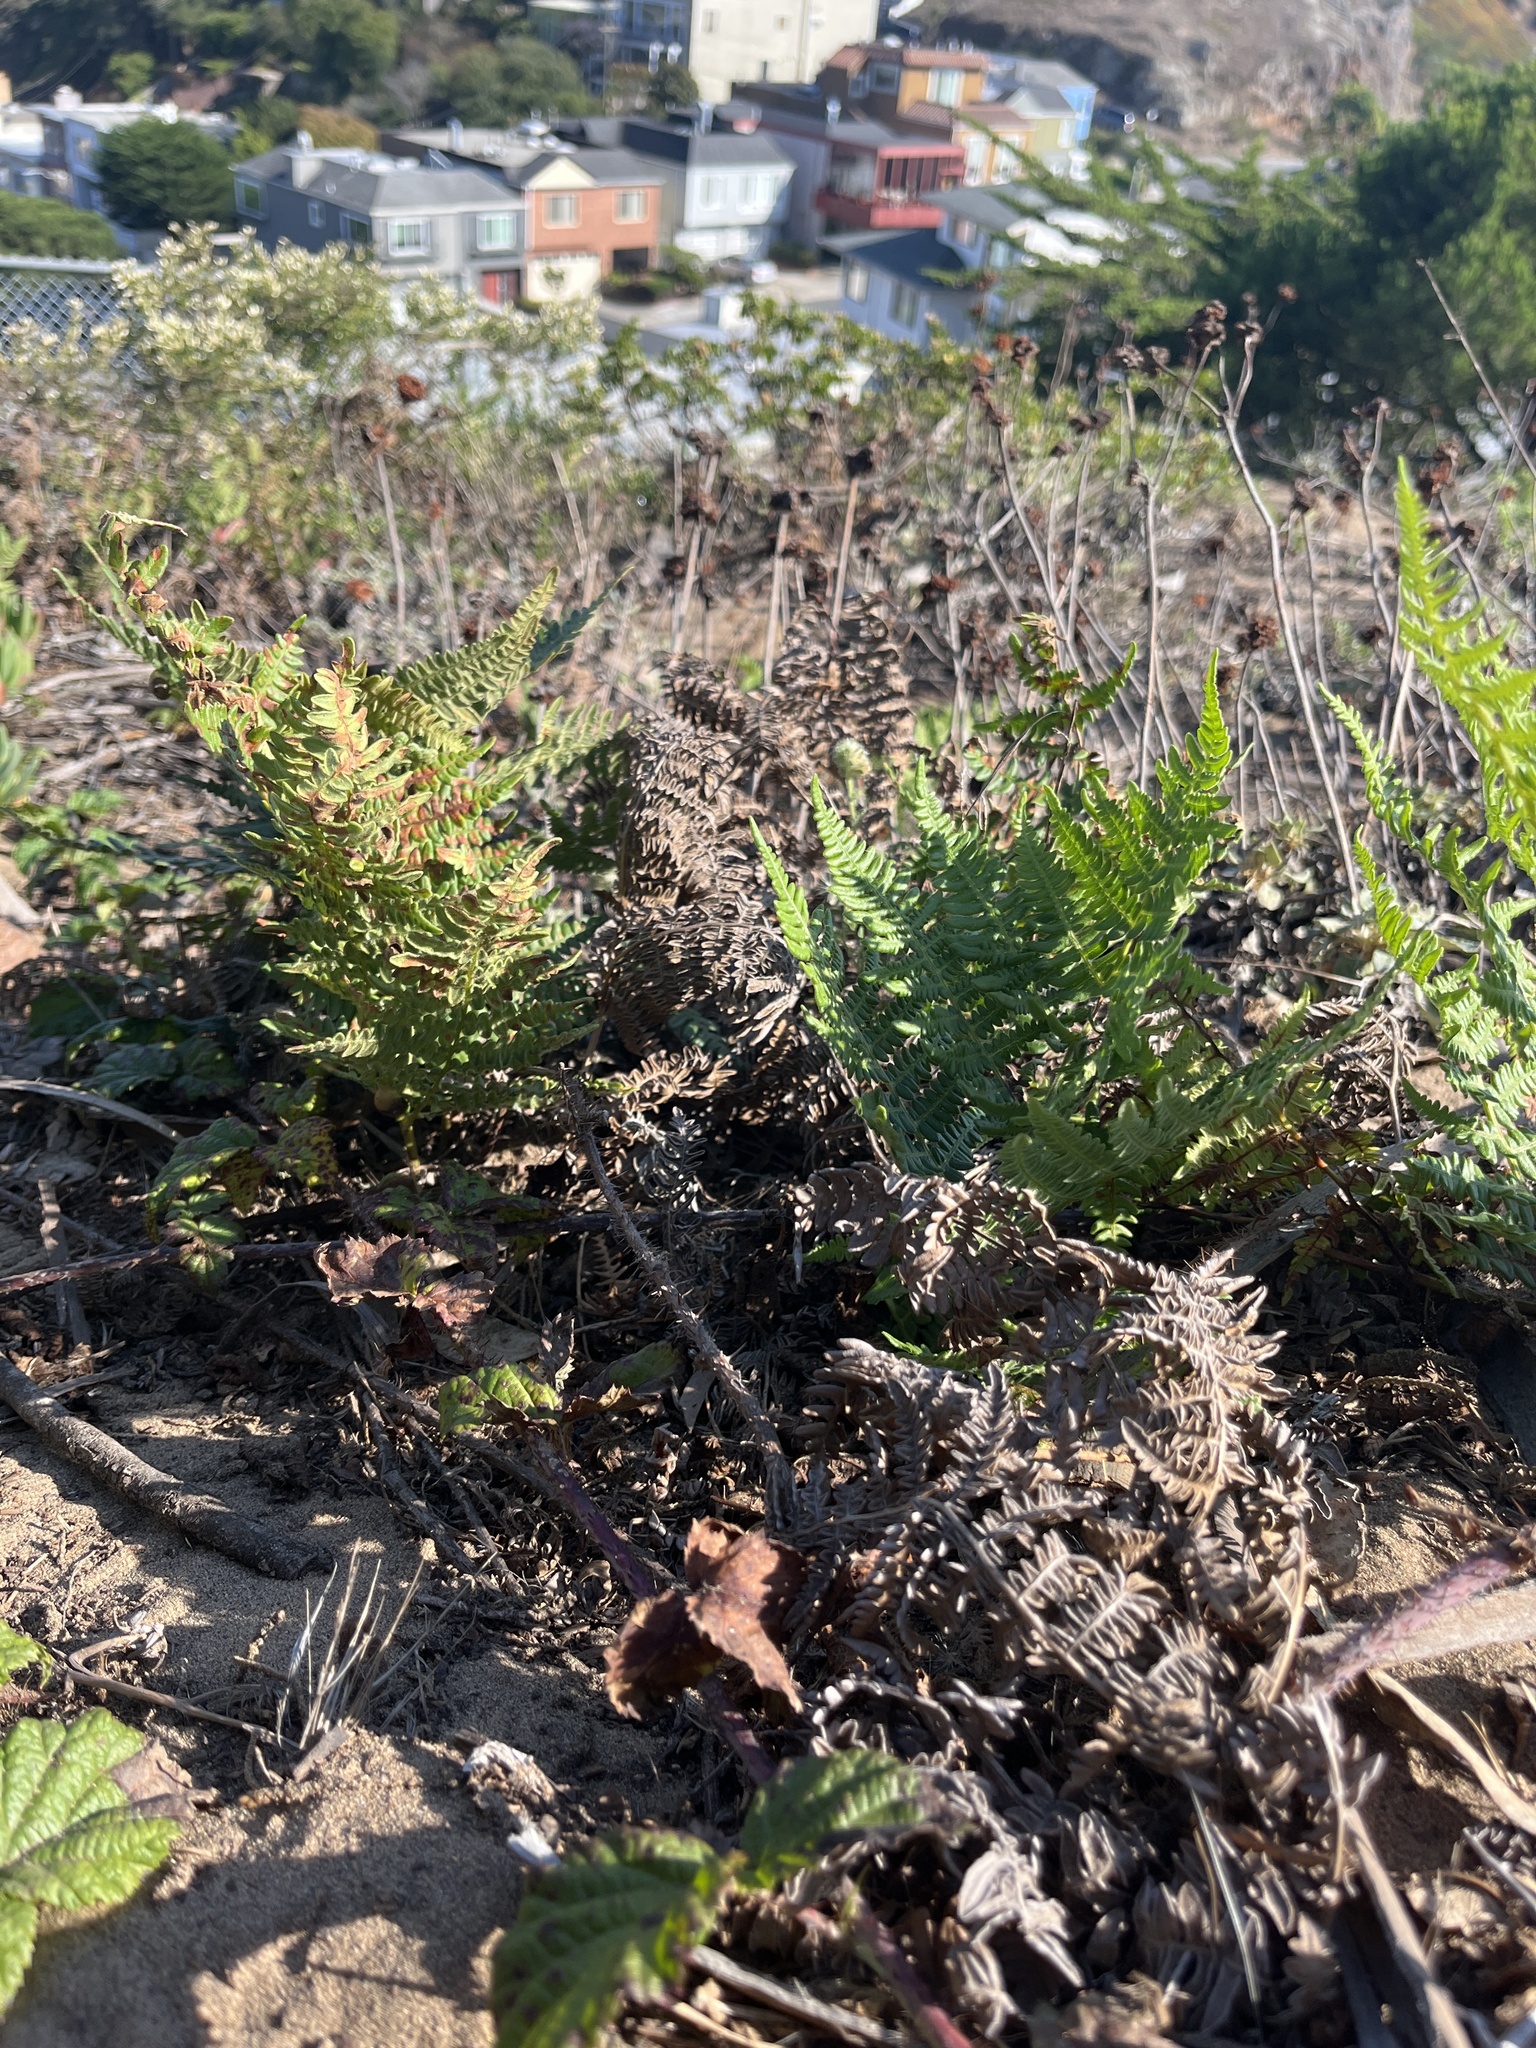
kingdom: Plantae
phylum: Tracheophyta
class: Polypodiopsida
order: Polypodiales
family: Dennstaedtiaceae
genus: Pteridium
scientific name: Pteridium aquilinum
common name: Bracken
